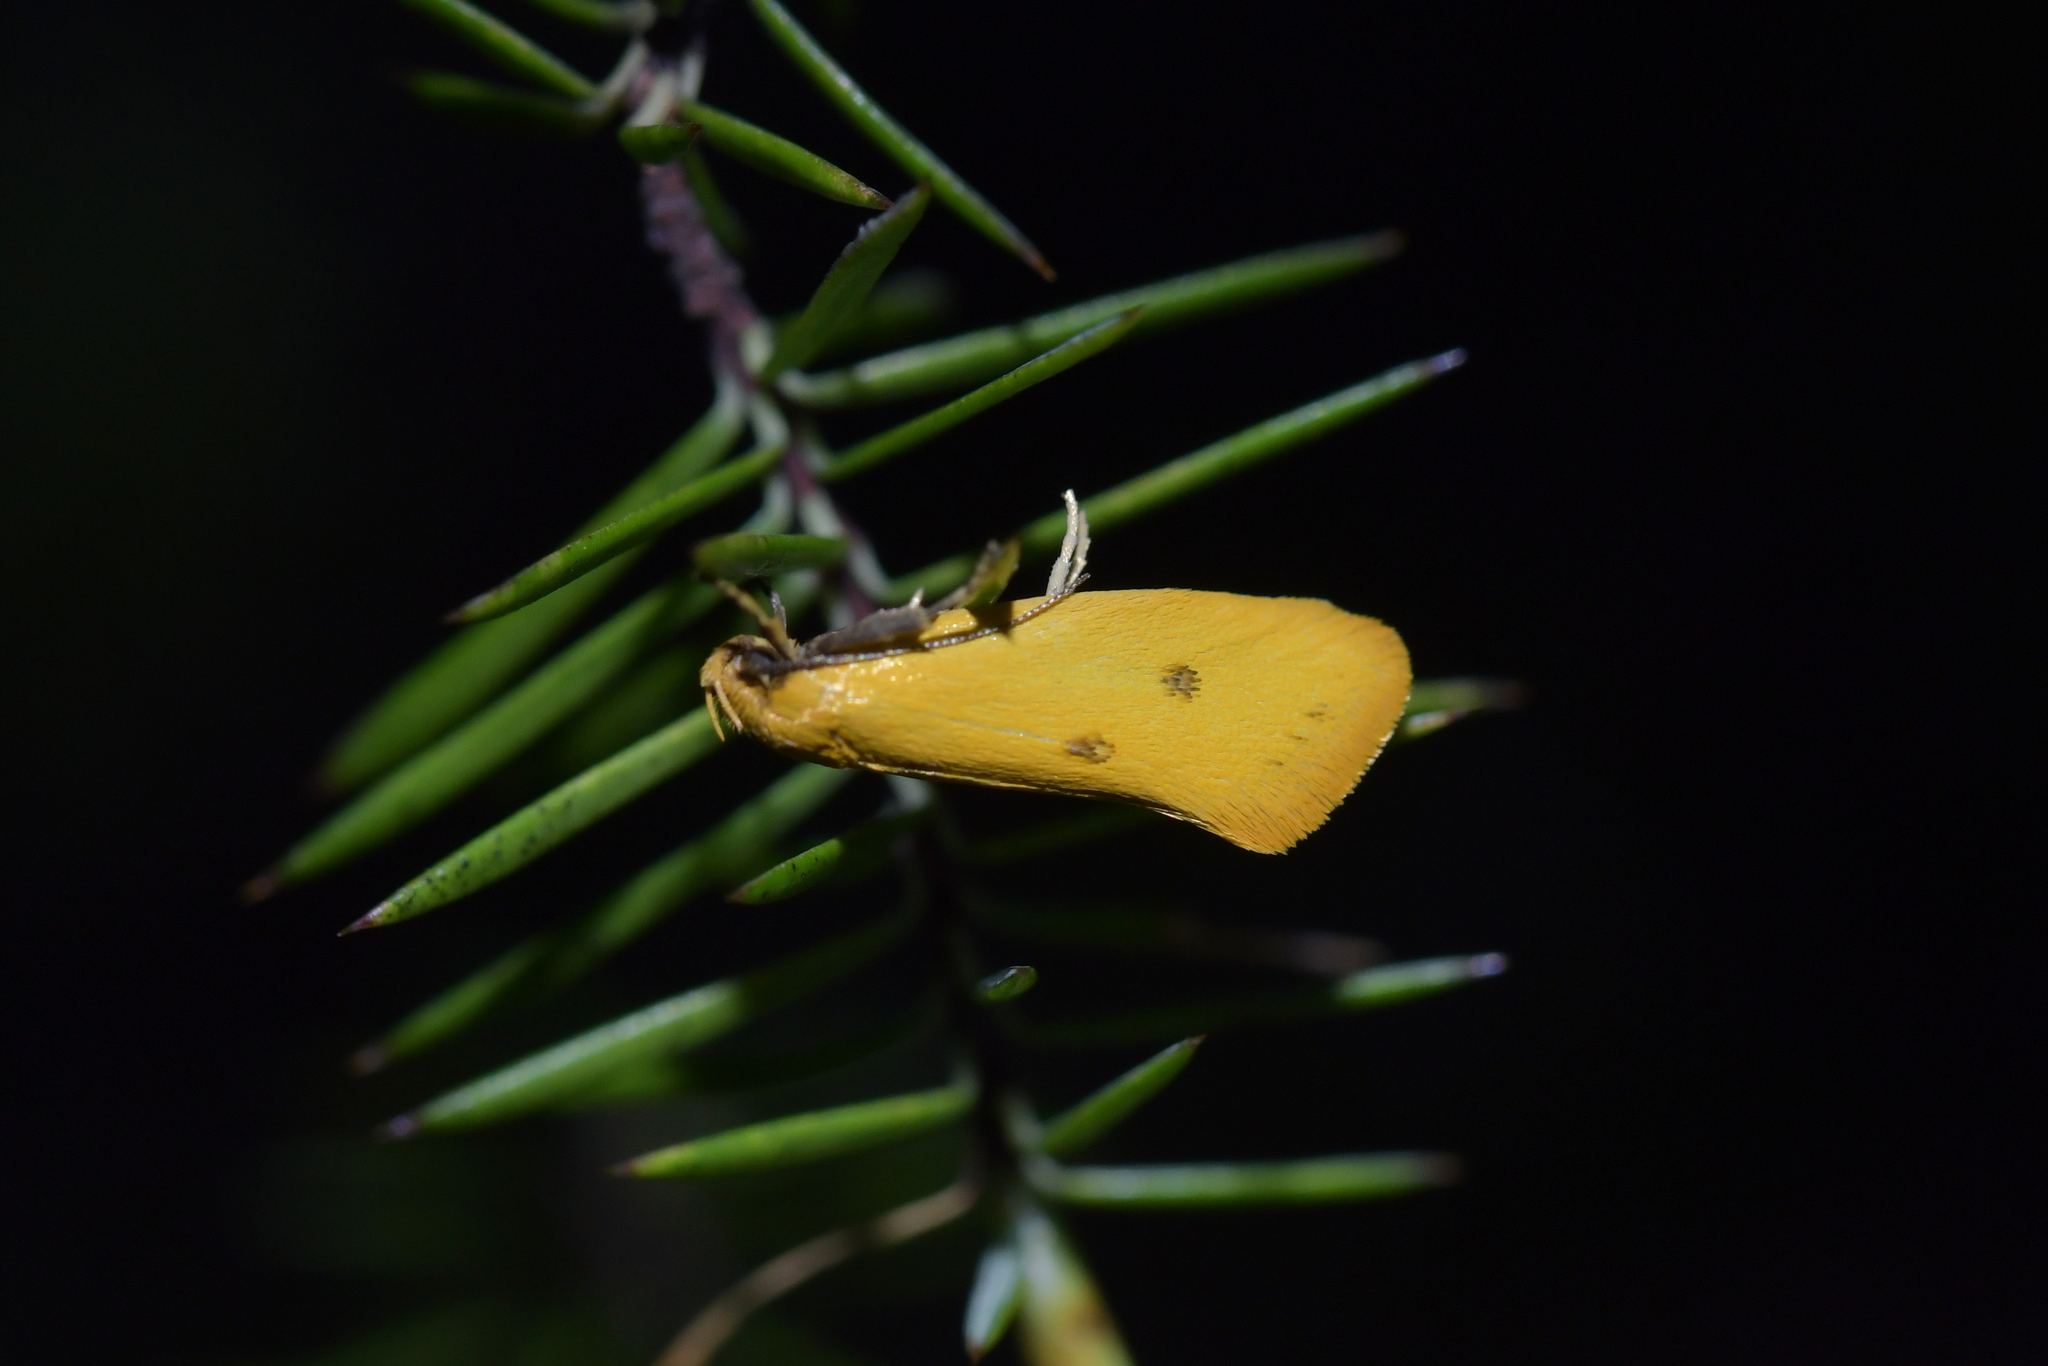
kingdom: Animalia
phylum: Arthropoda
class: Insecta
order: Lepidoptera
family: Oecophoridae
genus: Tingena
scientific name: Tingena grata
